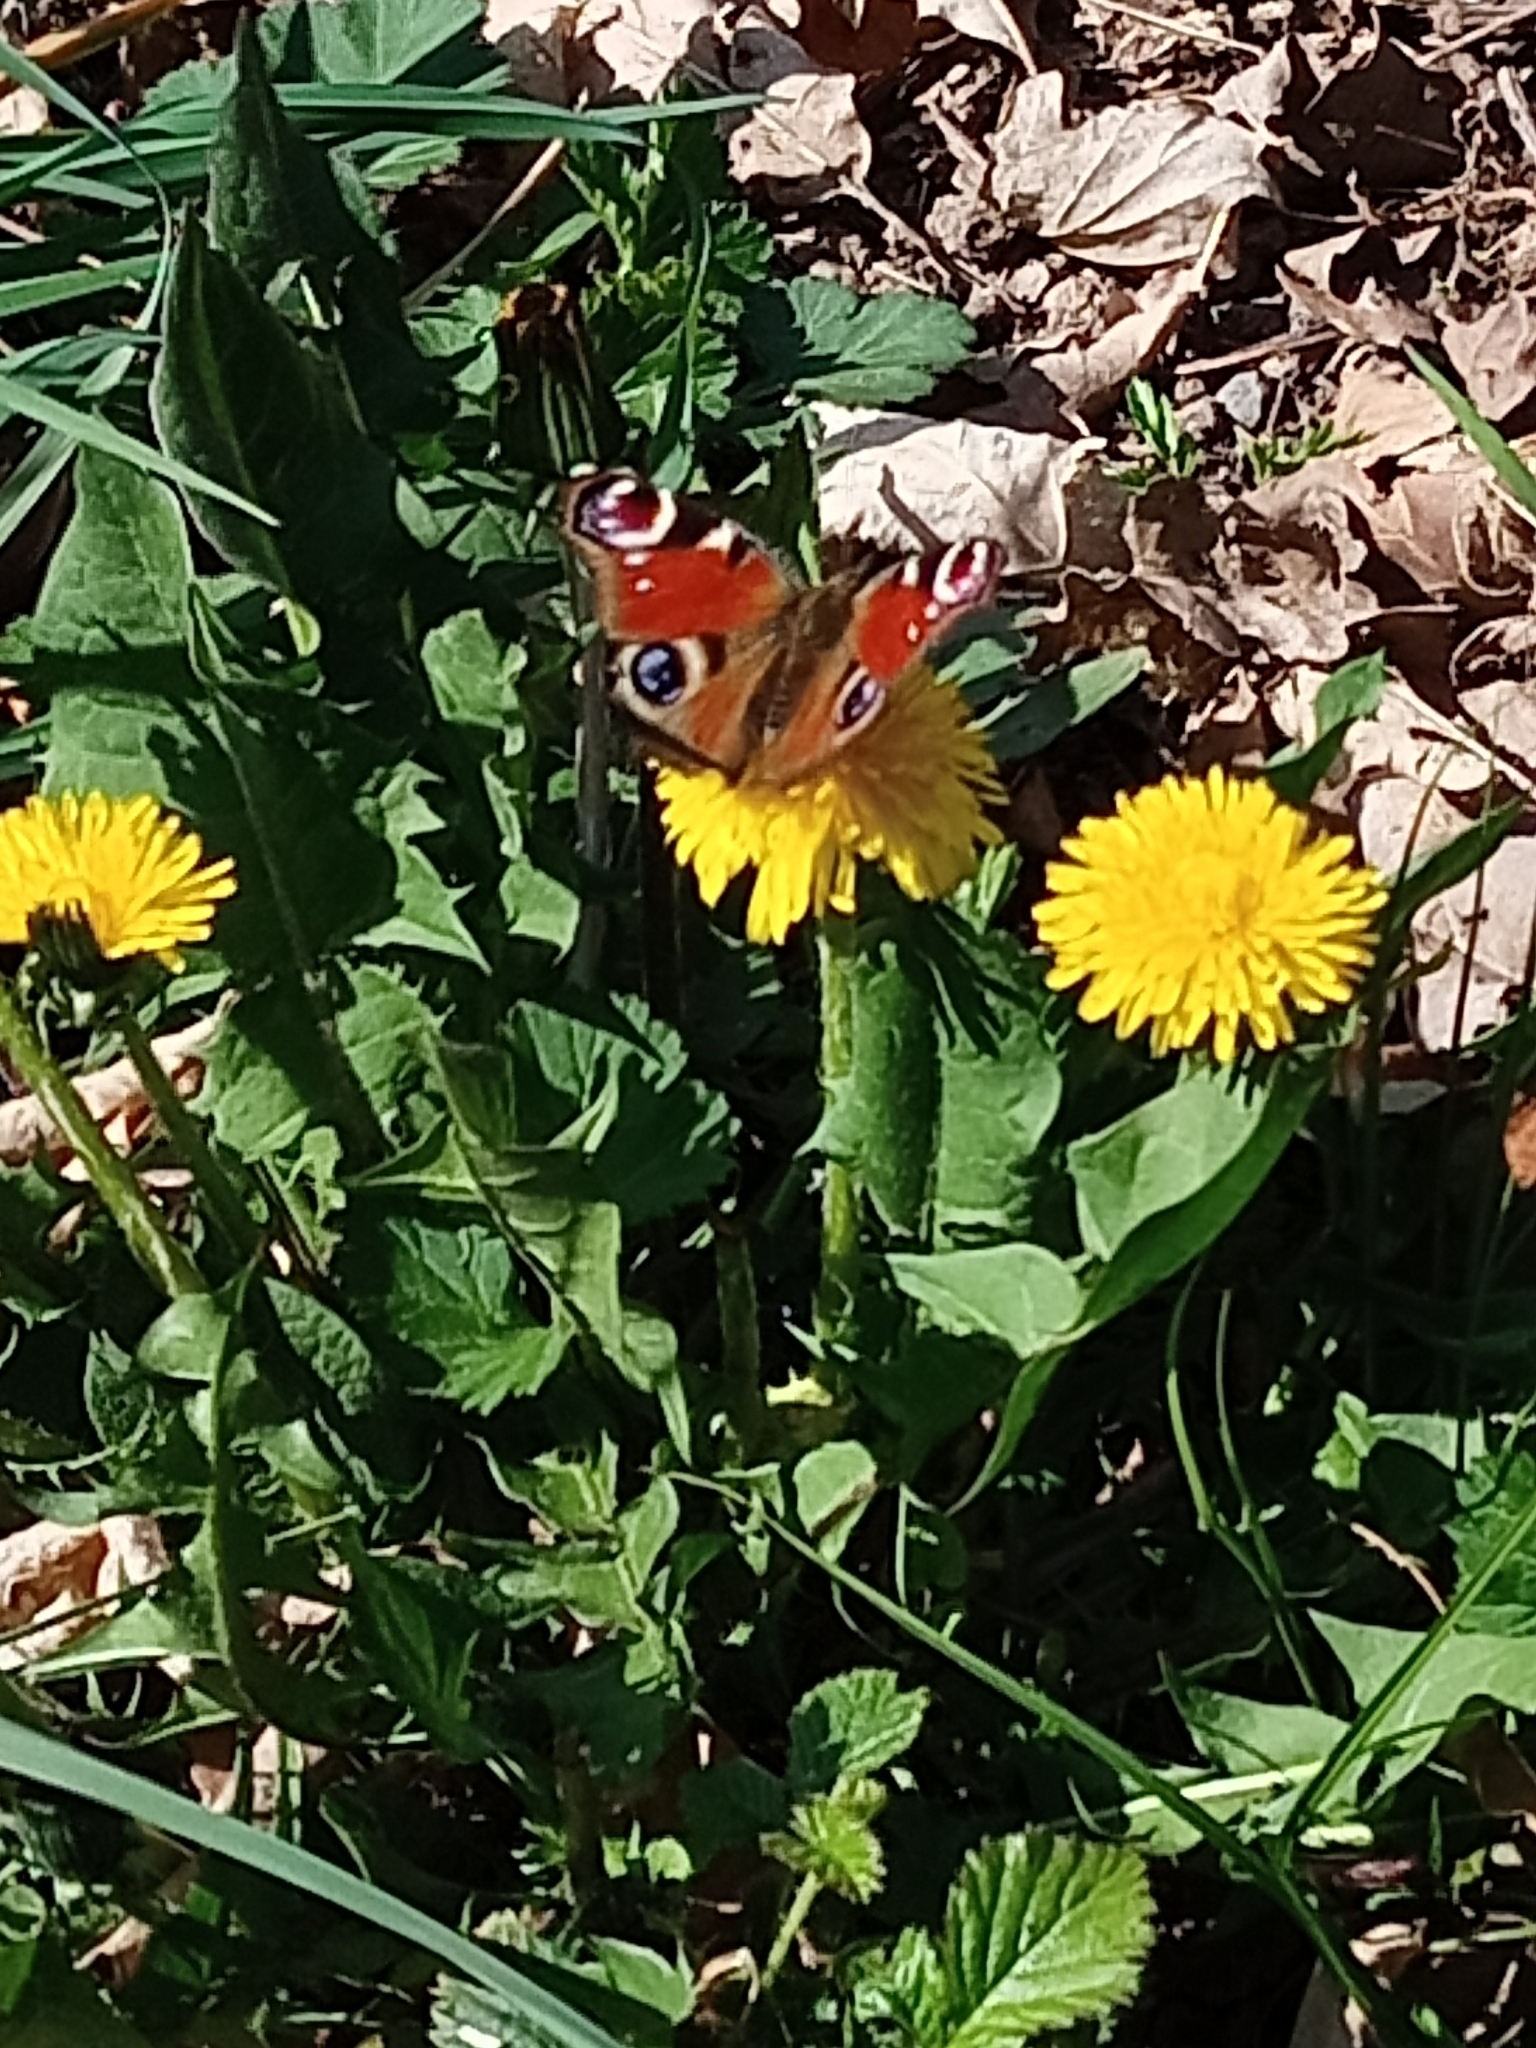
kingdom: Animalia
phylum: Arthropoda
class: Insecta
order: Lepidoptera
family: Nymphalidae
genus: Aglais
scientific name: Aglais io
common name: Peacock
